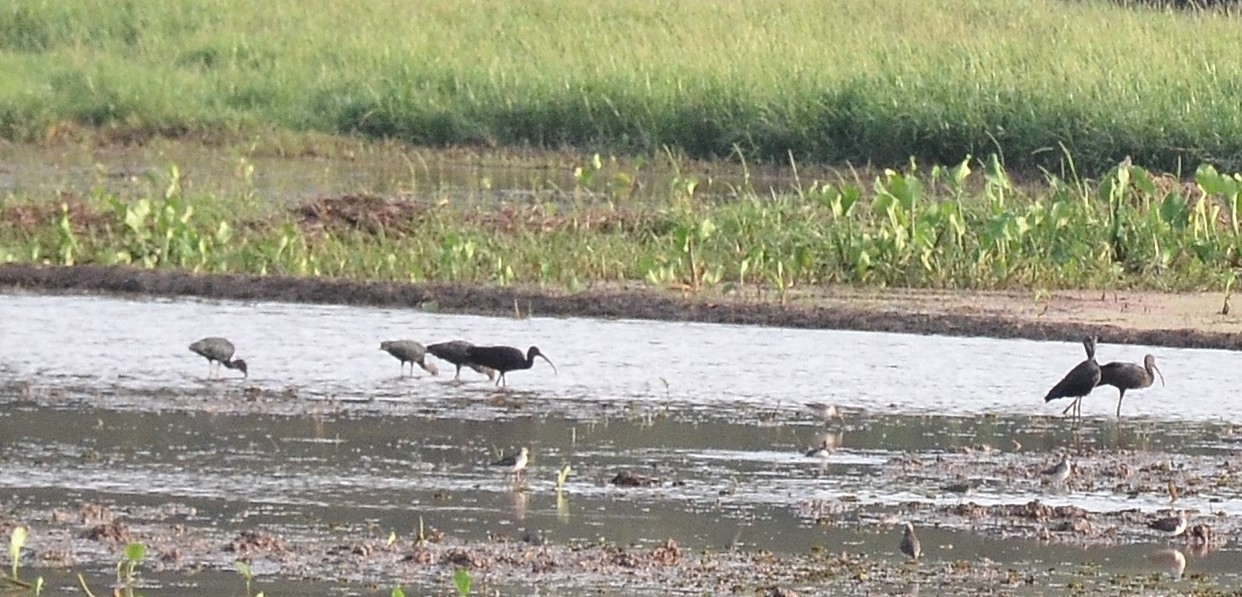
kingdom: Animalia
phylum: Chordata
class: Aves
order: Pelecaniformes
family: Threskiornithidae
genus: Plegadis
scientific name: Plegadis falcinellus
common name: Glossy ibis
